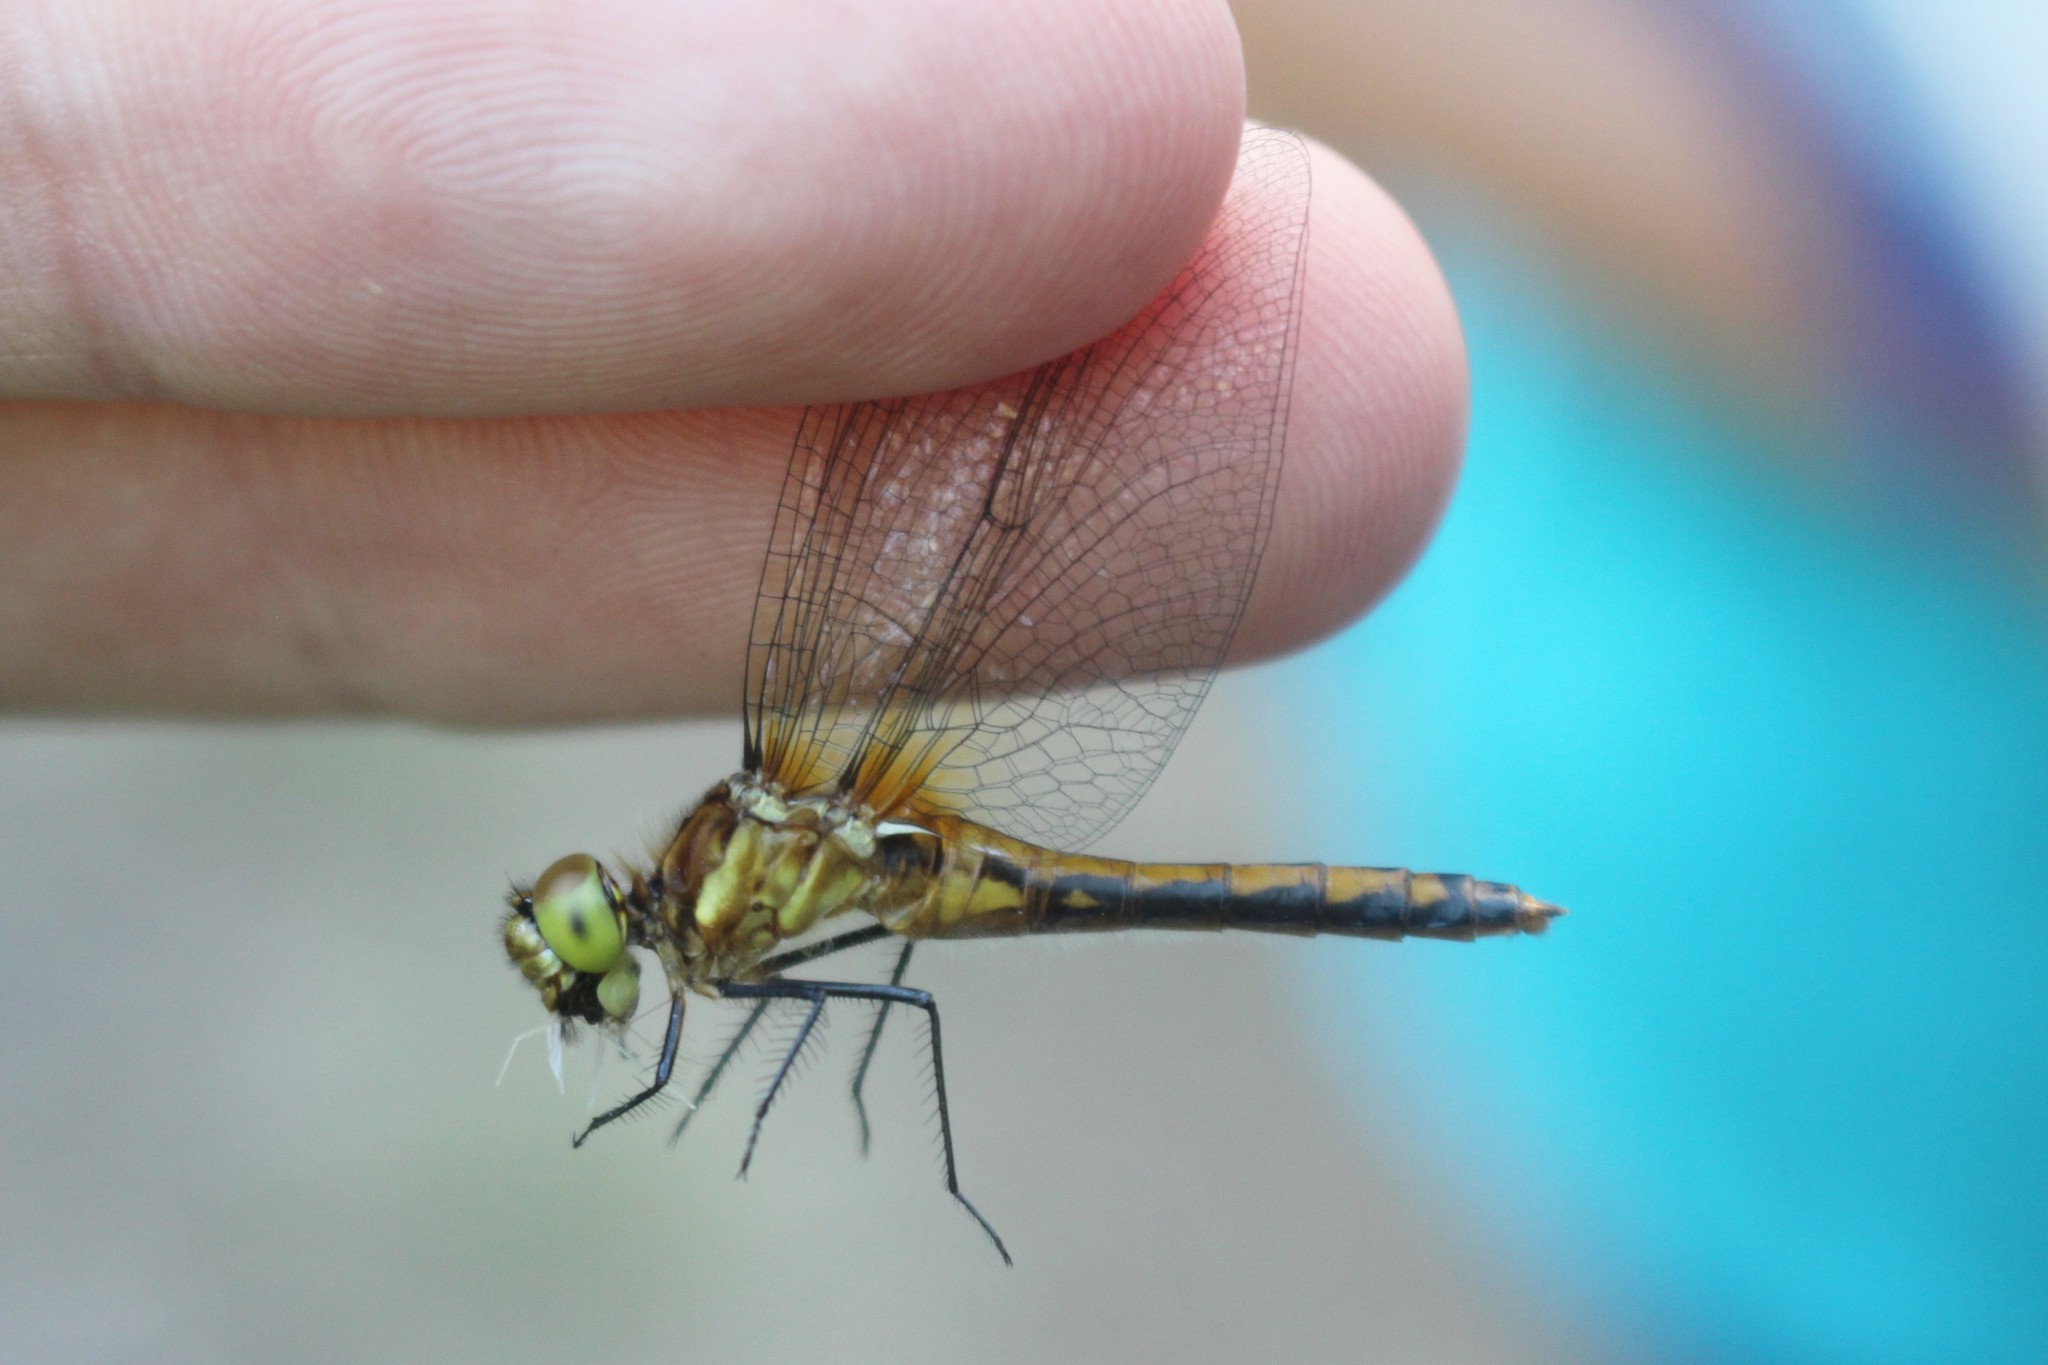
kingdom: Animalia
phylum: Arthropoda
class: Insecta
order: Odonata
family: Libellulidae
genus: Sympetrum
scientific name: Sympetrum obtrusum
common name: White-faced meadowhawk
